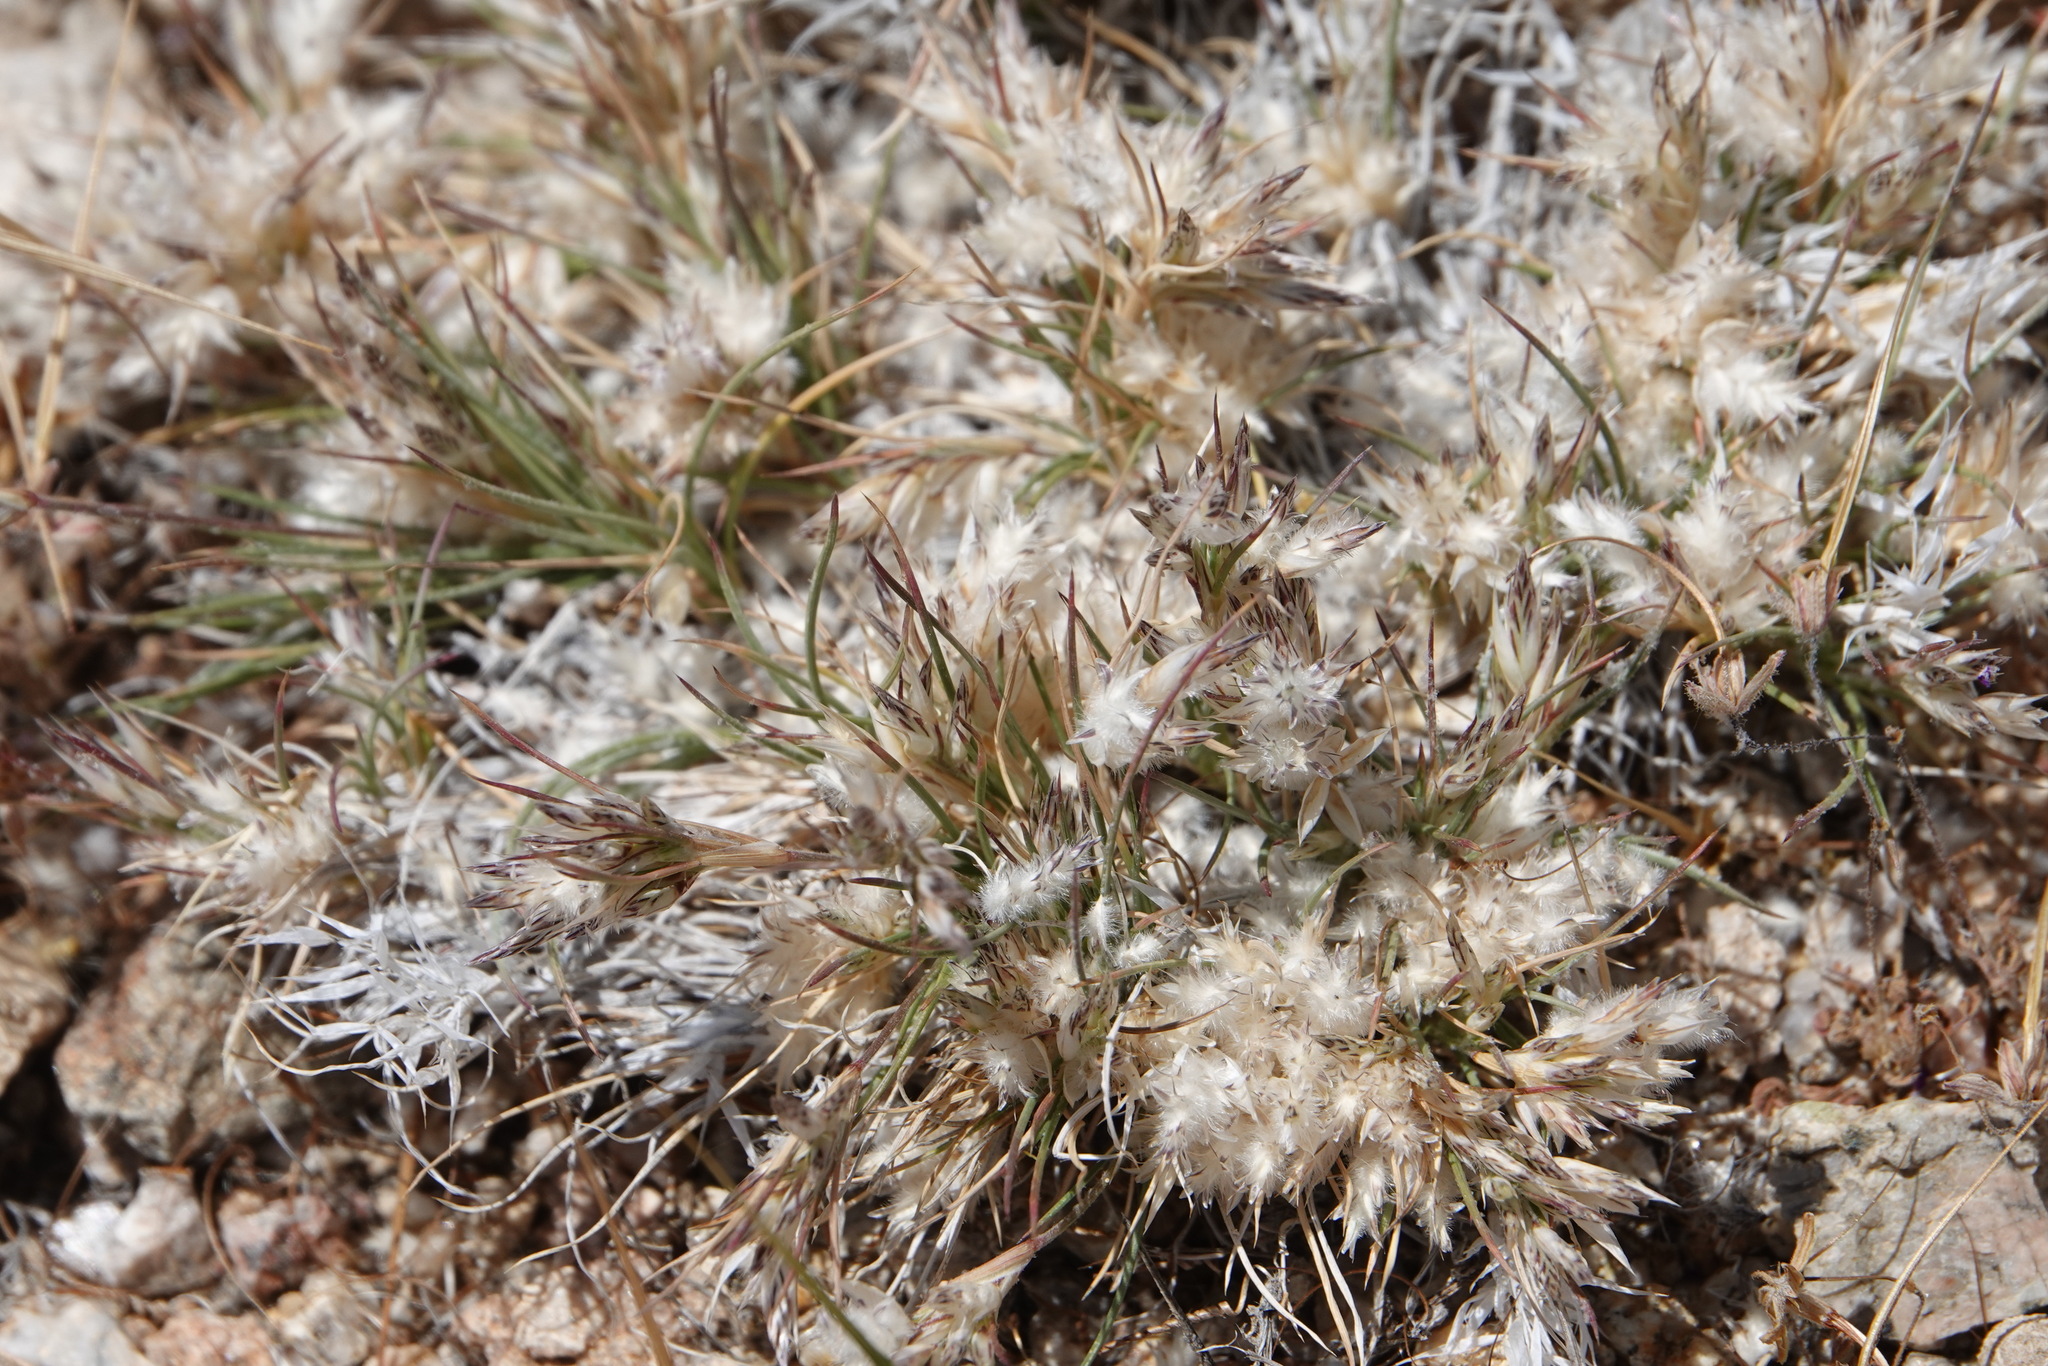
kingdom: Plantae
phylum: Tracheophyta
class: Liliopsida
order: Poales
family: Poaceae
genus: Dasyochloa
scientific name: Dasyochloa pulchella
